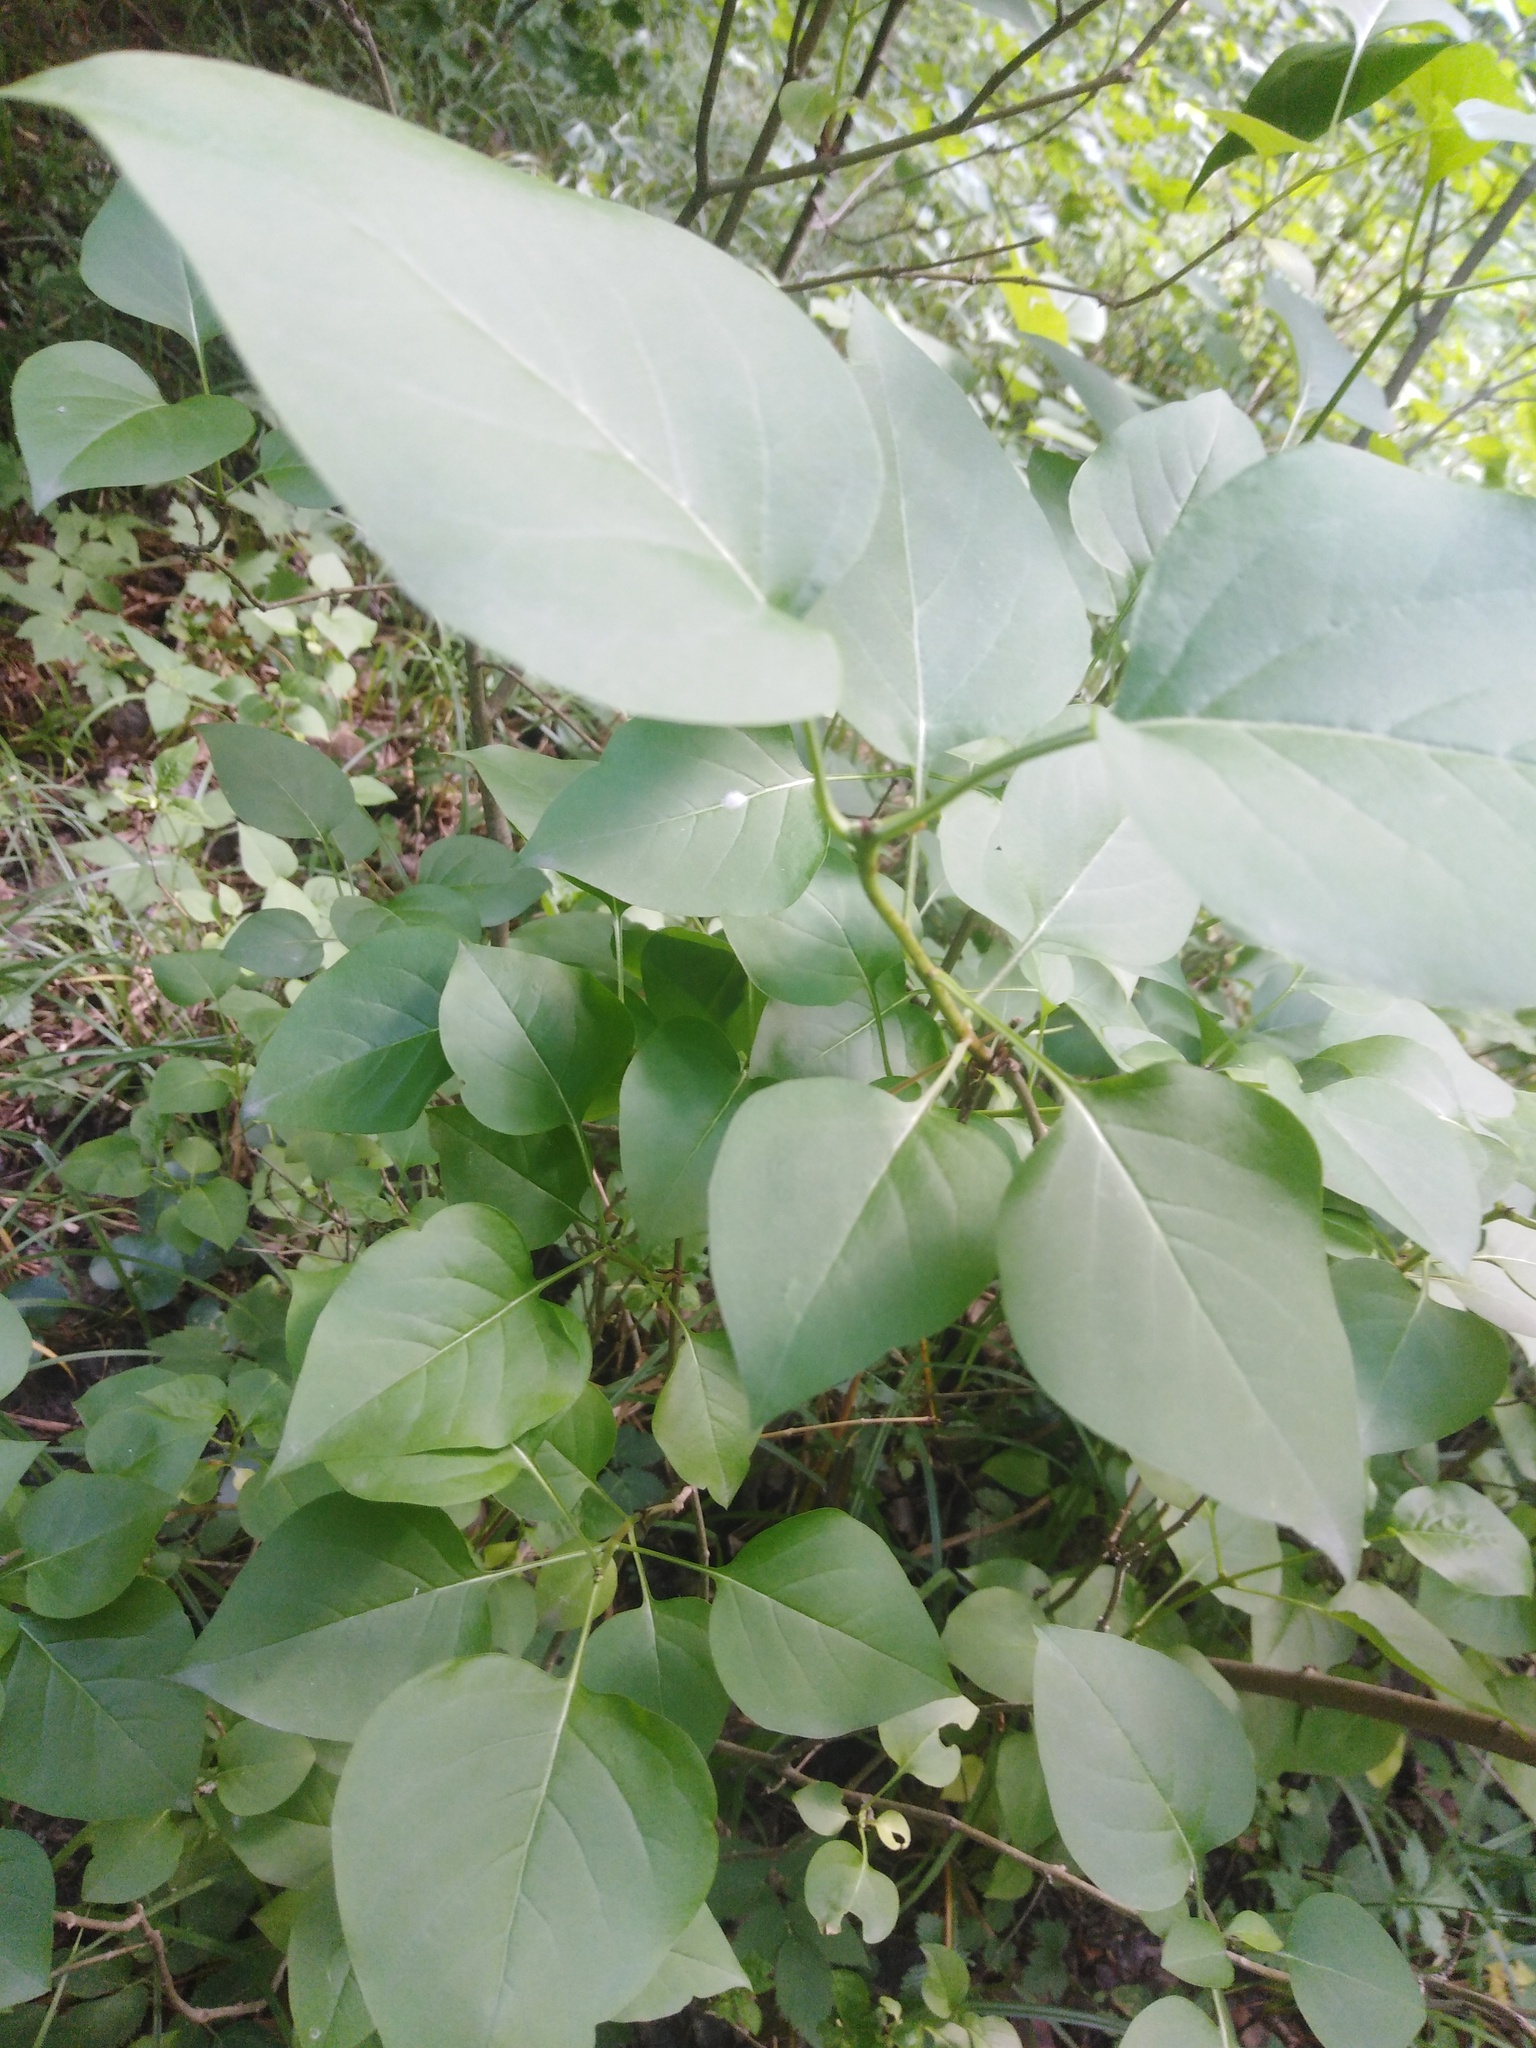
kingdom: Plantae
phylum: Tracheophyta
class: Magnoliopsida
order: Lamiales
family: Oleaceae
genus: Syringa
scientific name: Syringa vulgaris
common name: Common lilac
